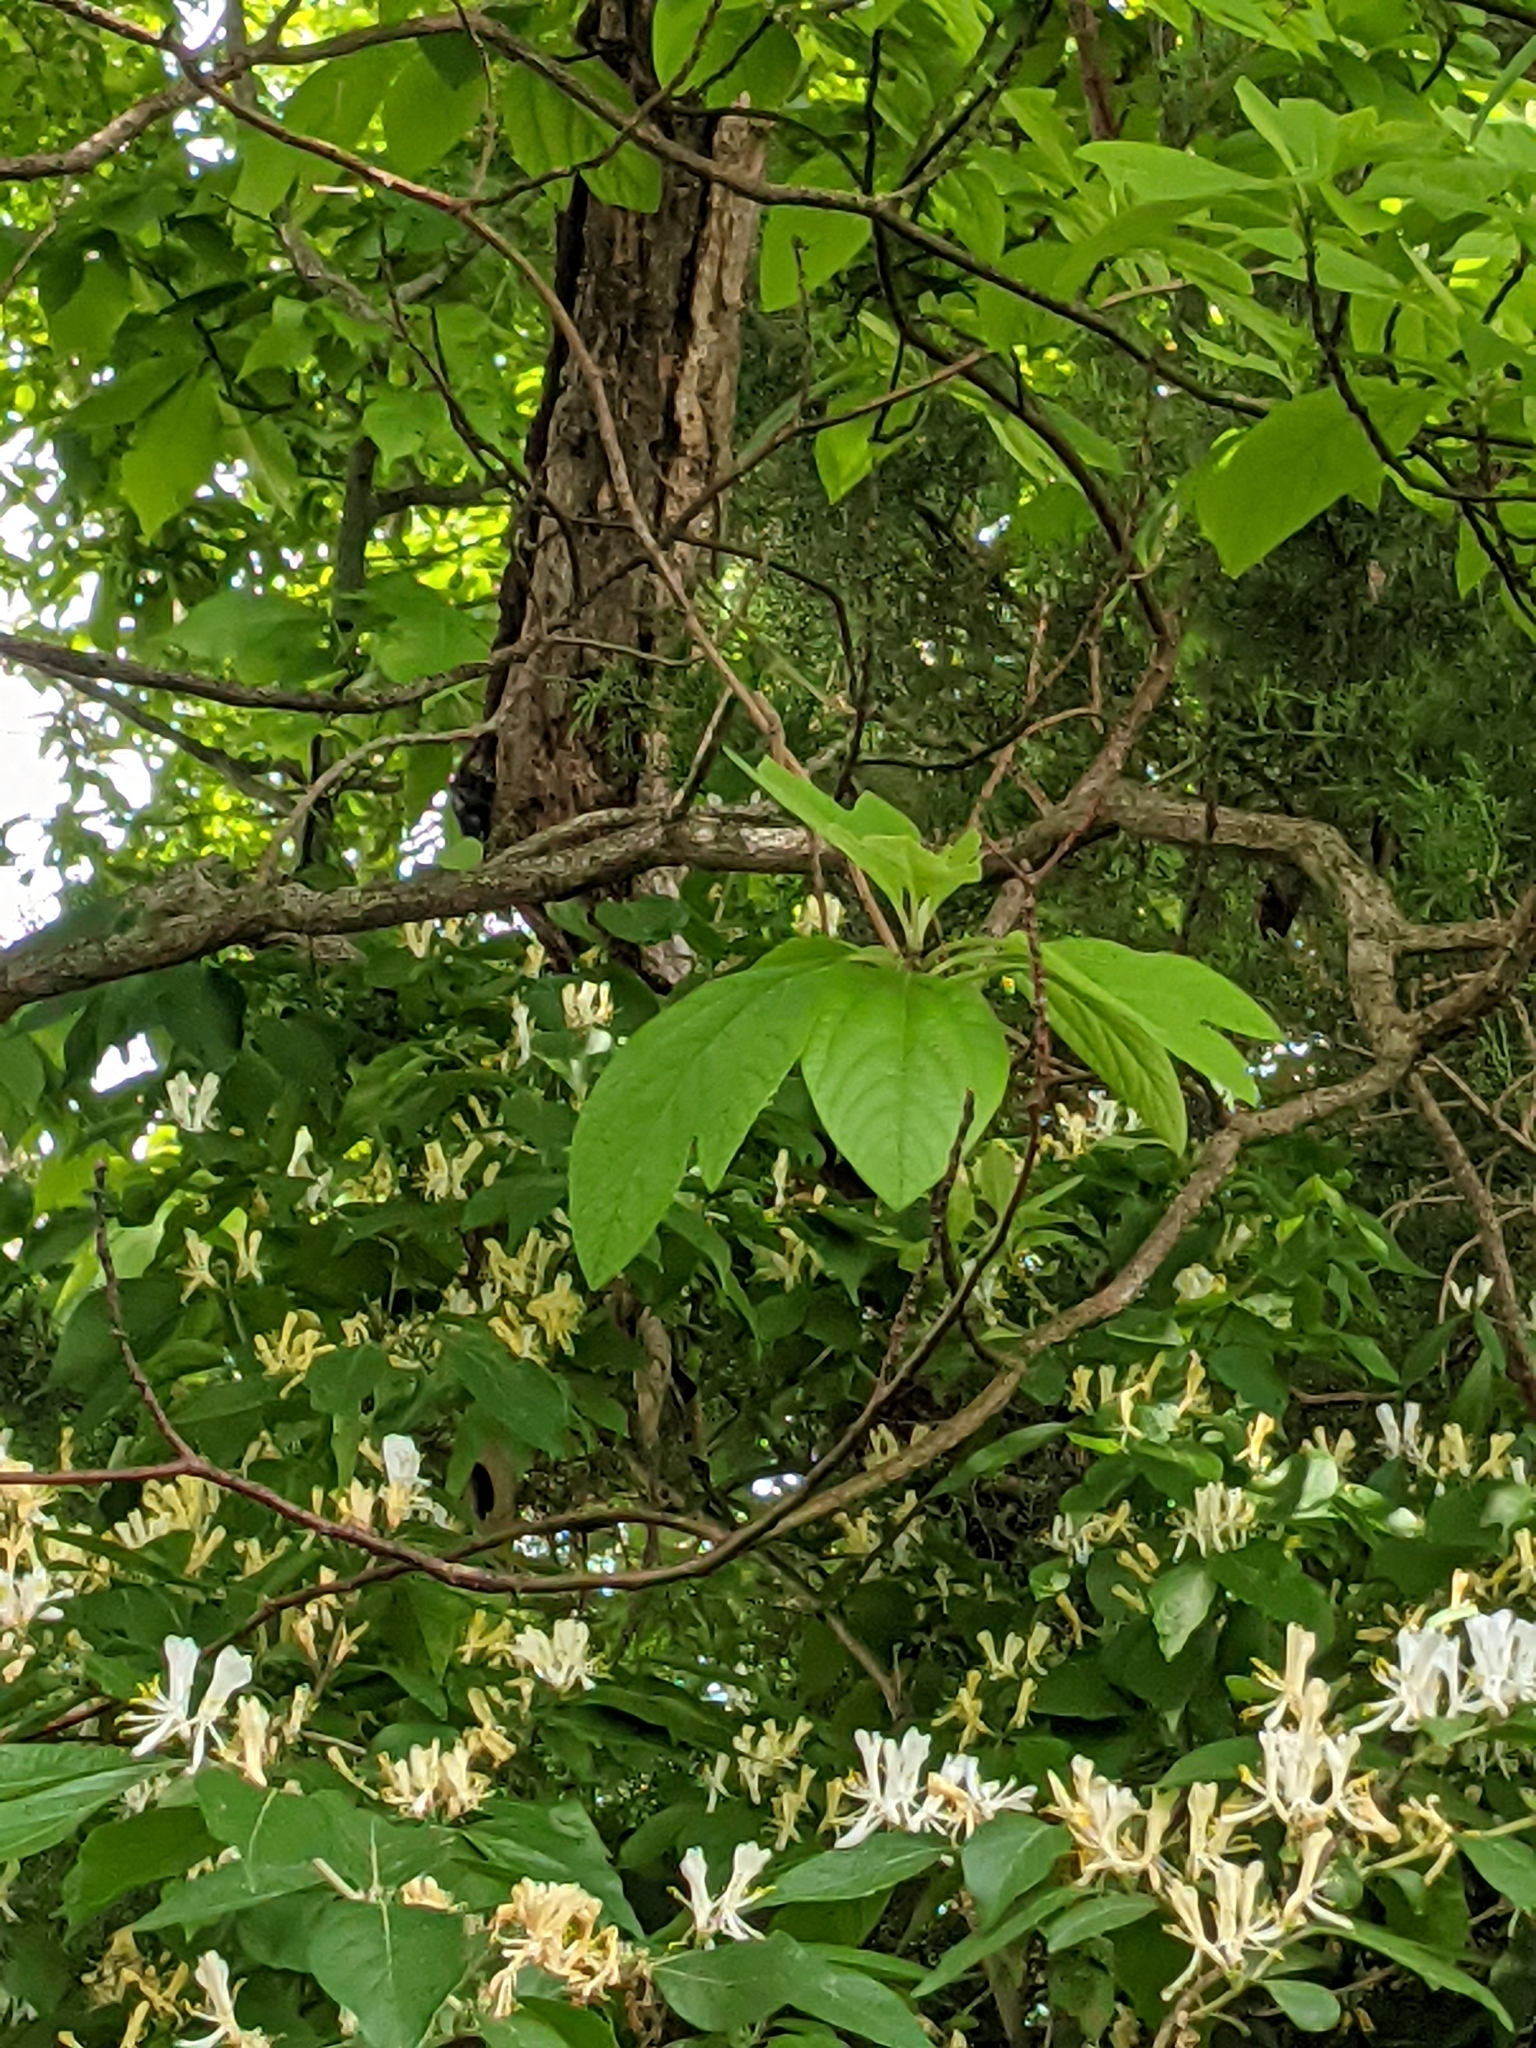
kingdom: Plantae
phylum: Tracheophyta
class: Magnoliopsida
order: Laurales
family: Lauraceae
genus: Sassafras
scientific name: Sassafras albidum
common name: Sassafras
